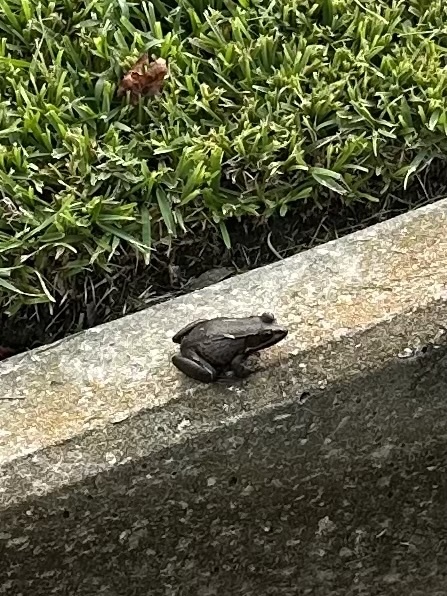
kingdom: Animalia
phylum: Chordata
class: Amphibia
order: Anura
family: Ranidae
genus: Lithobates
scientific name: Lithobates clamitans
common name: Green frog
